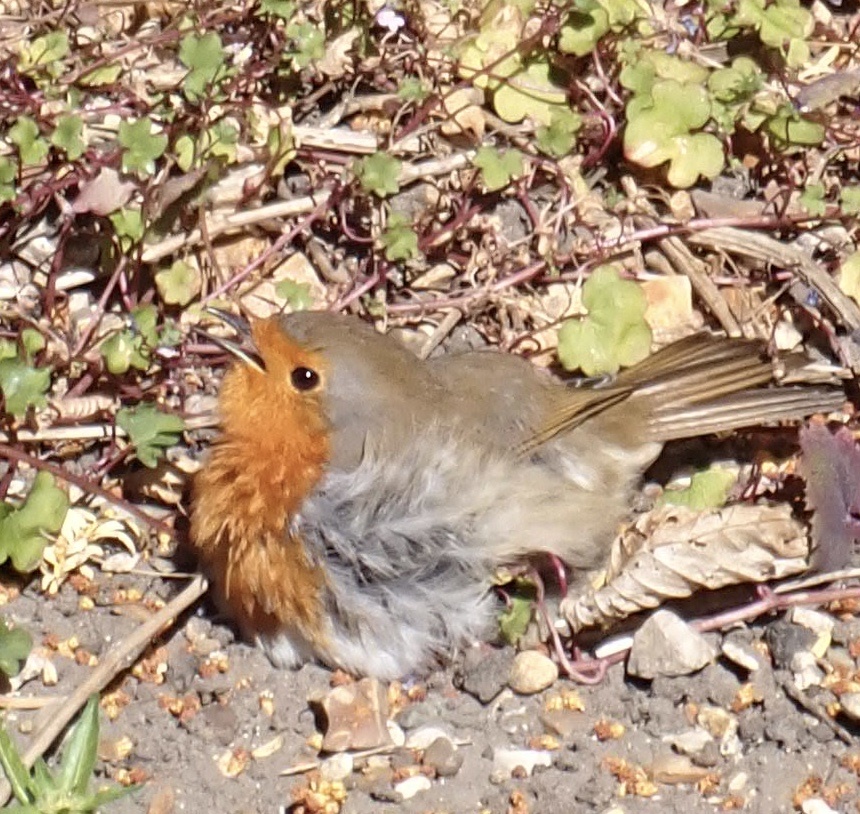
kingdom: Animalia
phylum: Chordata
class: Aves
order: Passeriformes
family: Muscicapidae
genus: Erithacus
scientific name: Erithacus rubecula
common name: European robin
